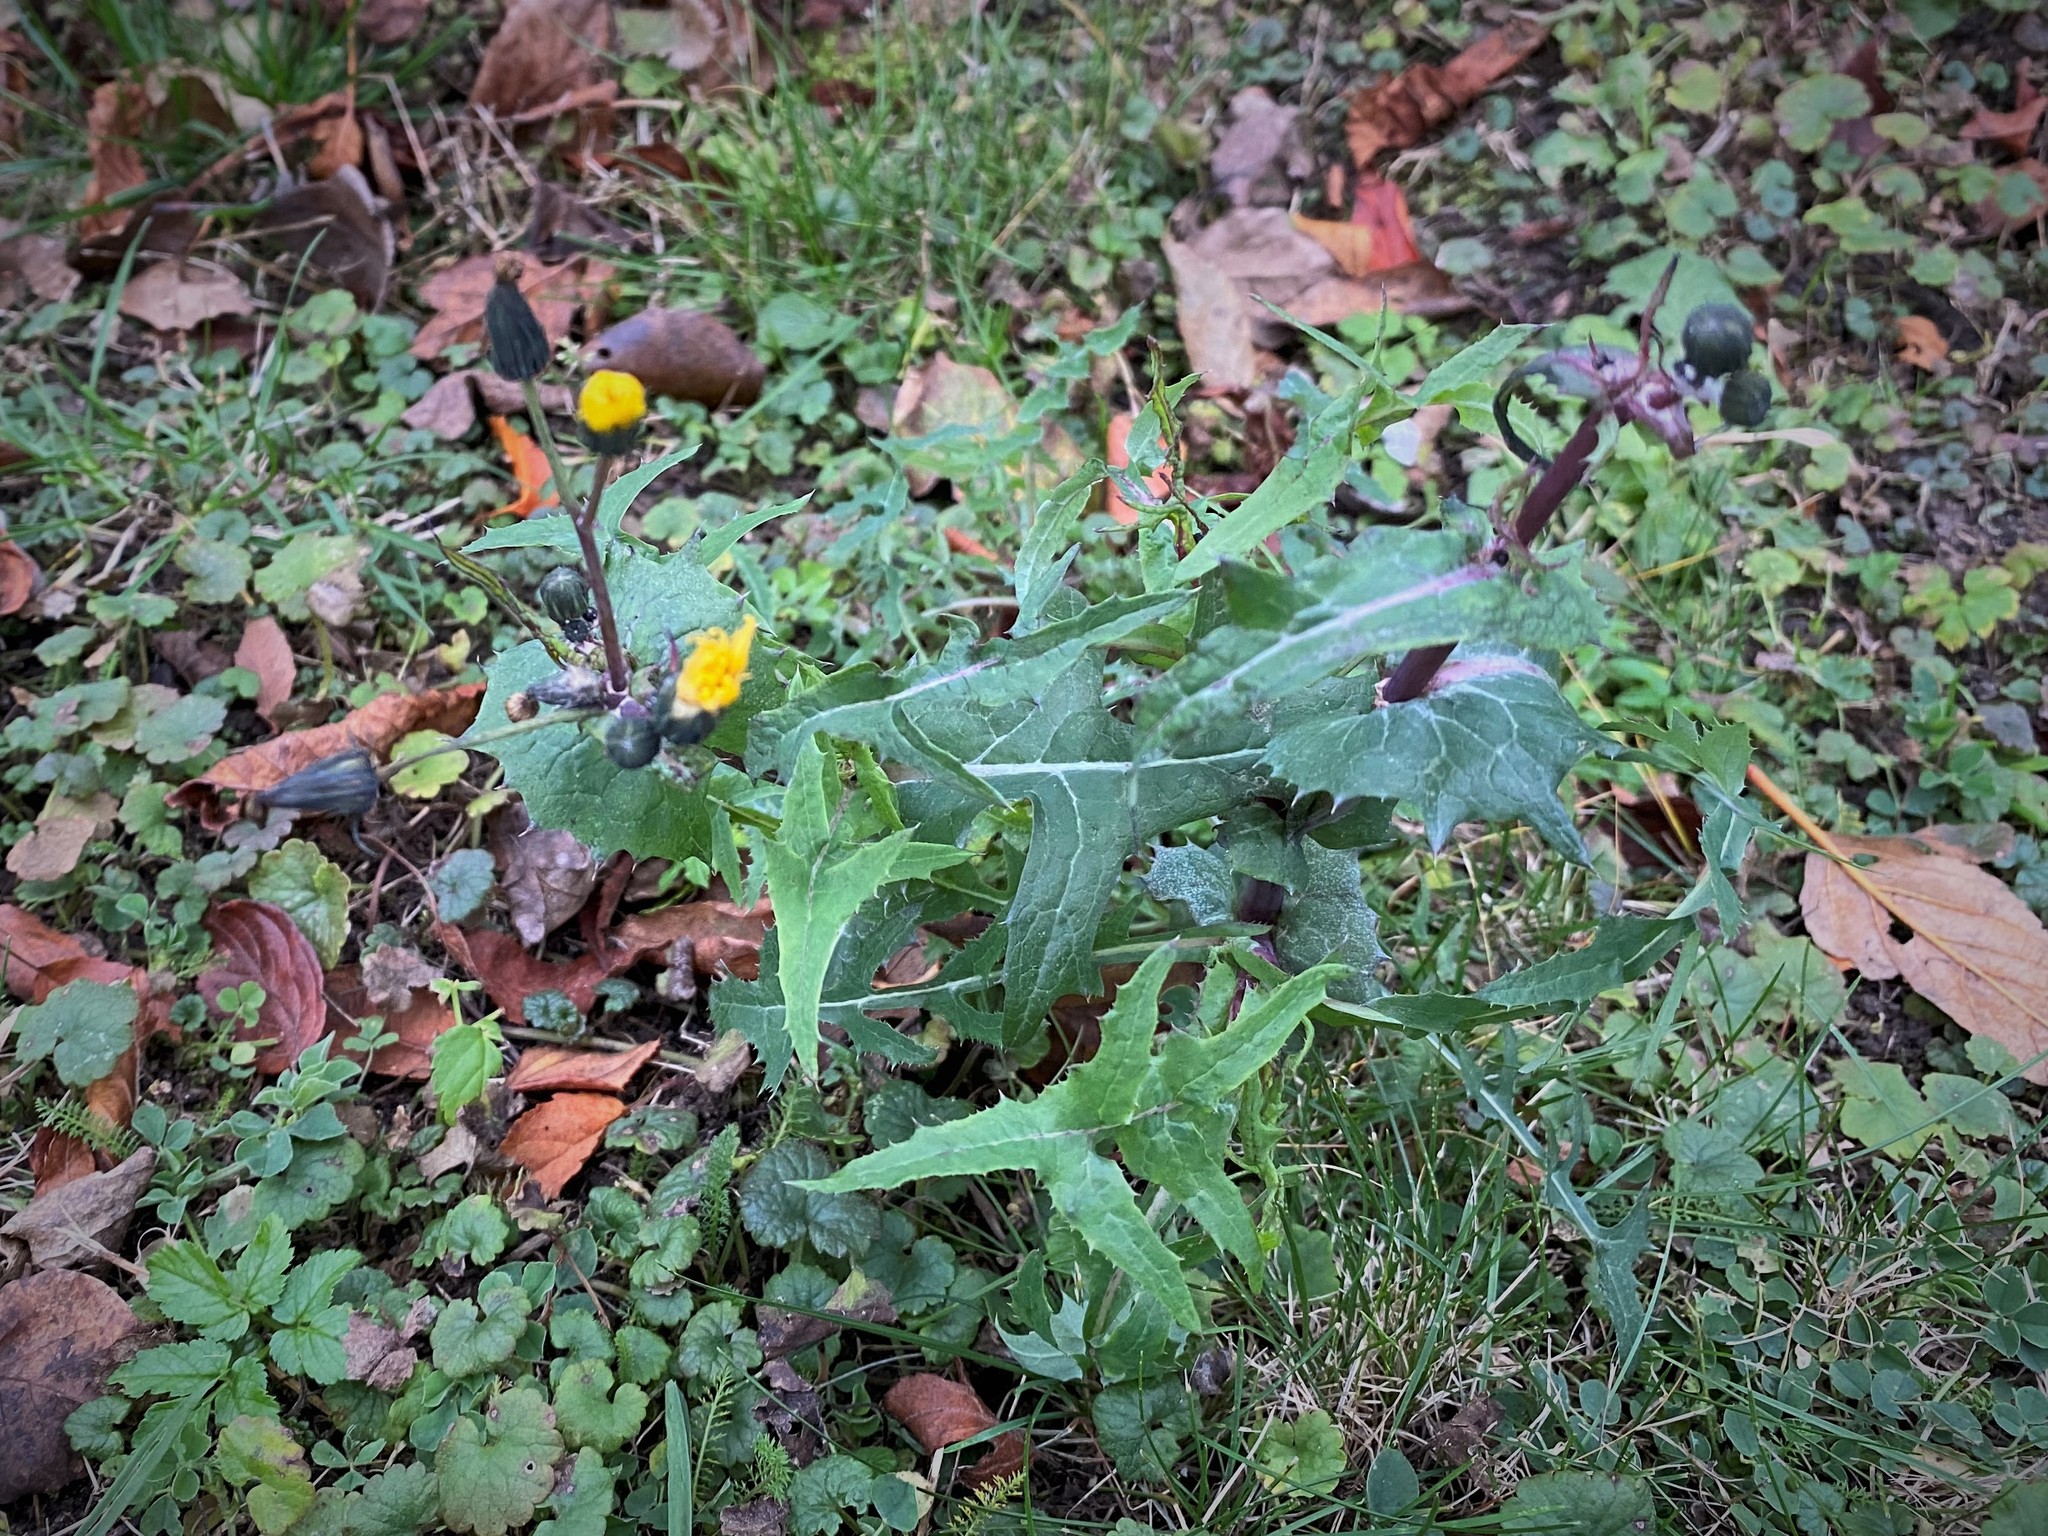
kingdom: Plantae
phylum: Tracheophyta
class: Magnoliopsida
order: Asterales
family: Asteraceae
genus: Sonchus
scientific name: Sonchus oleraceus
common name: Common sowthistle
